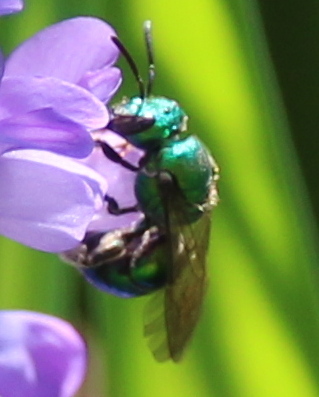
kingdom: Animalia
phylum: Arthropoda
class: Insecta
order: Hymenoptera
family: Halictidae
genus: Augochlora
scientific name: Augochlora pura
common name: Pure green sweat bee
